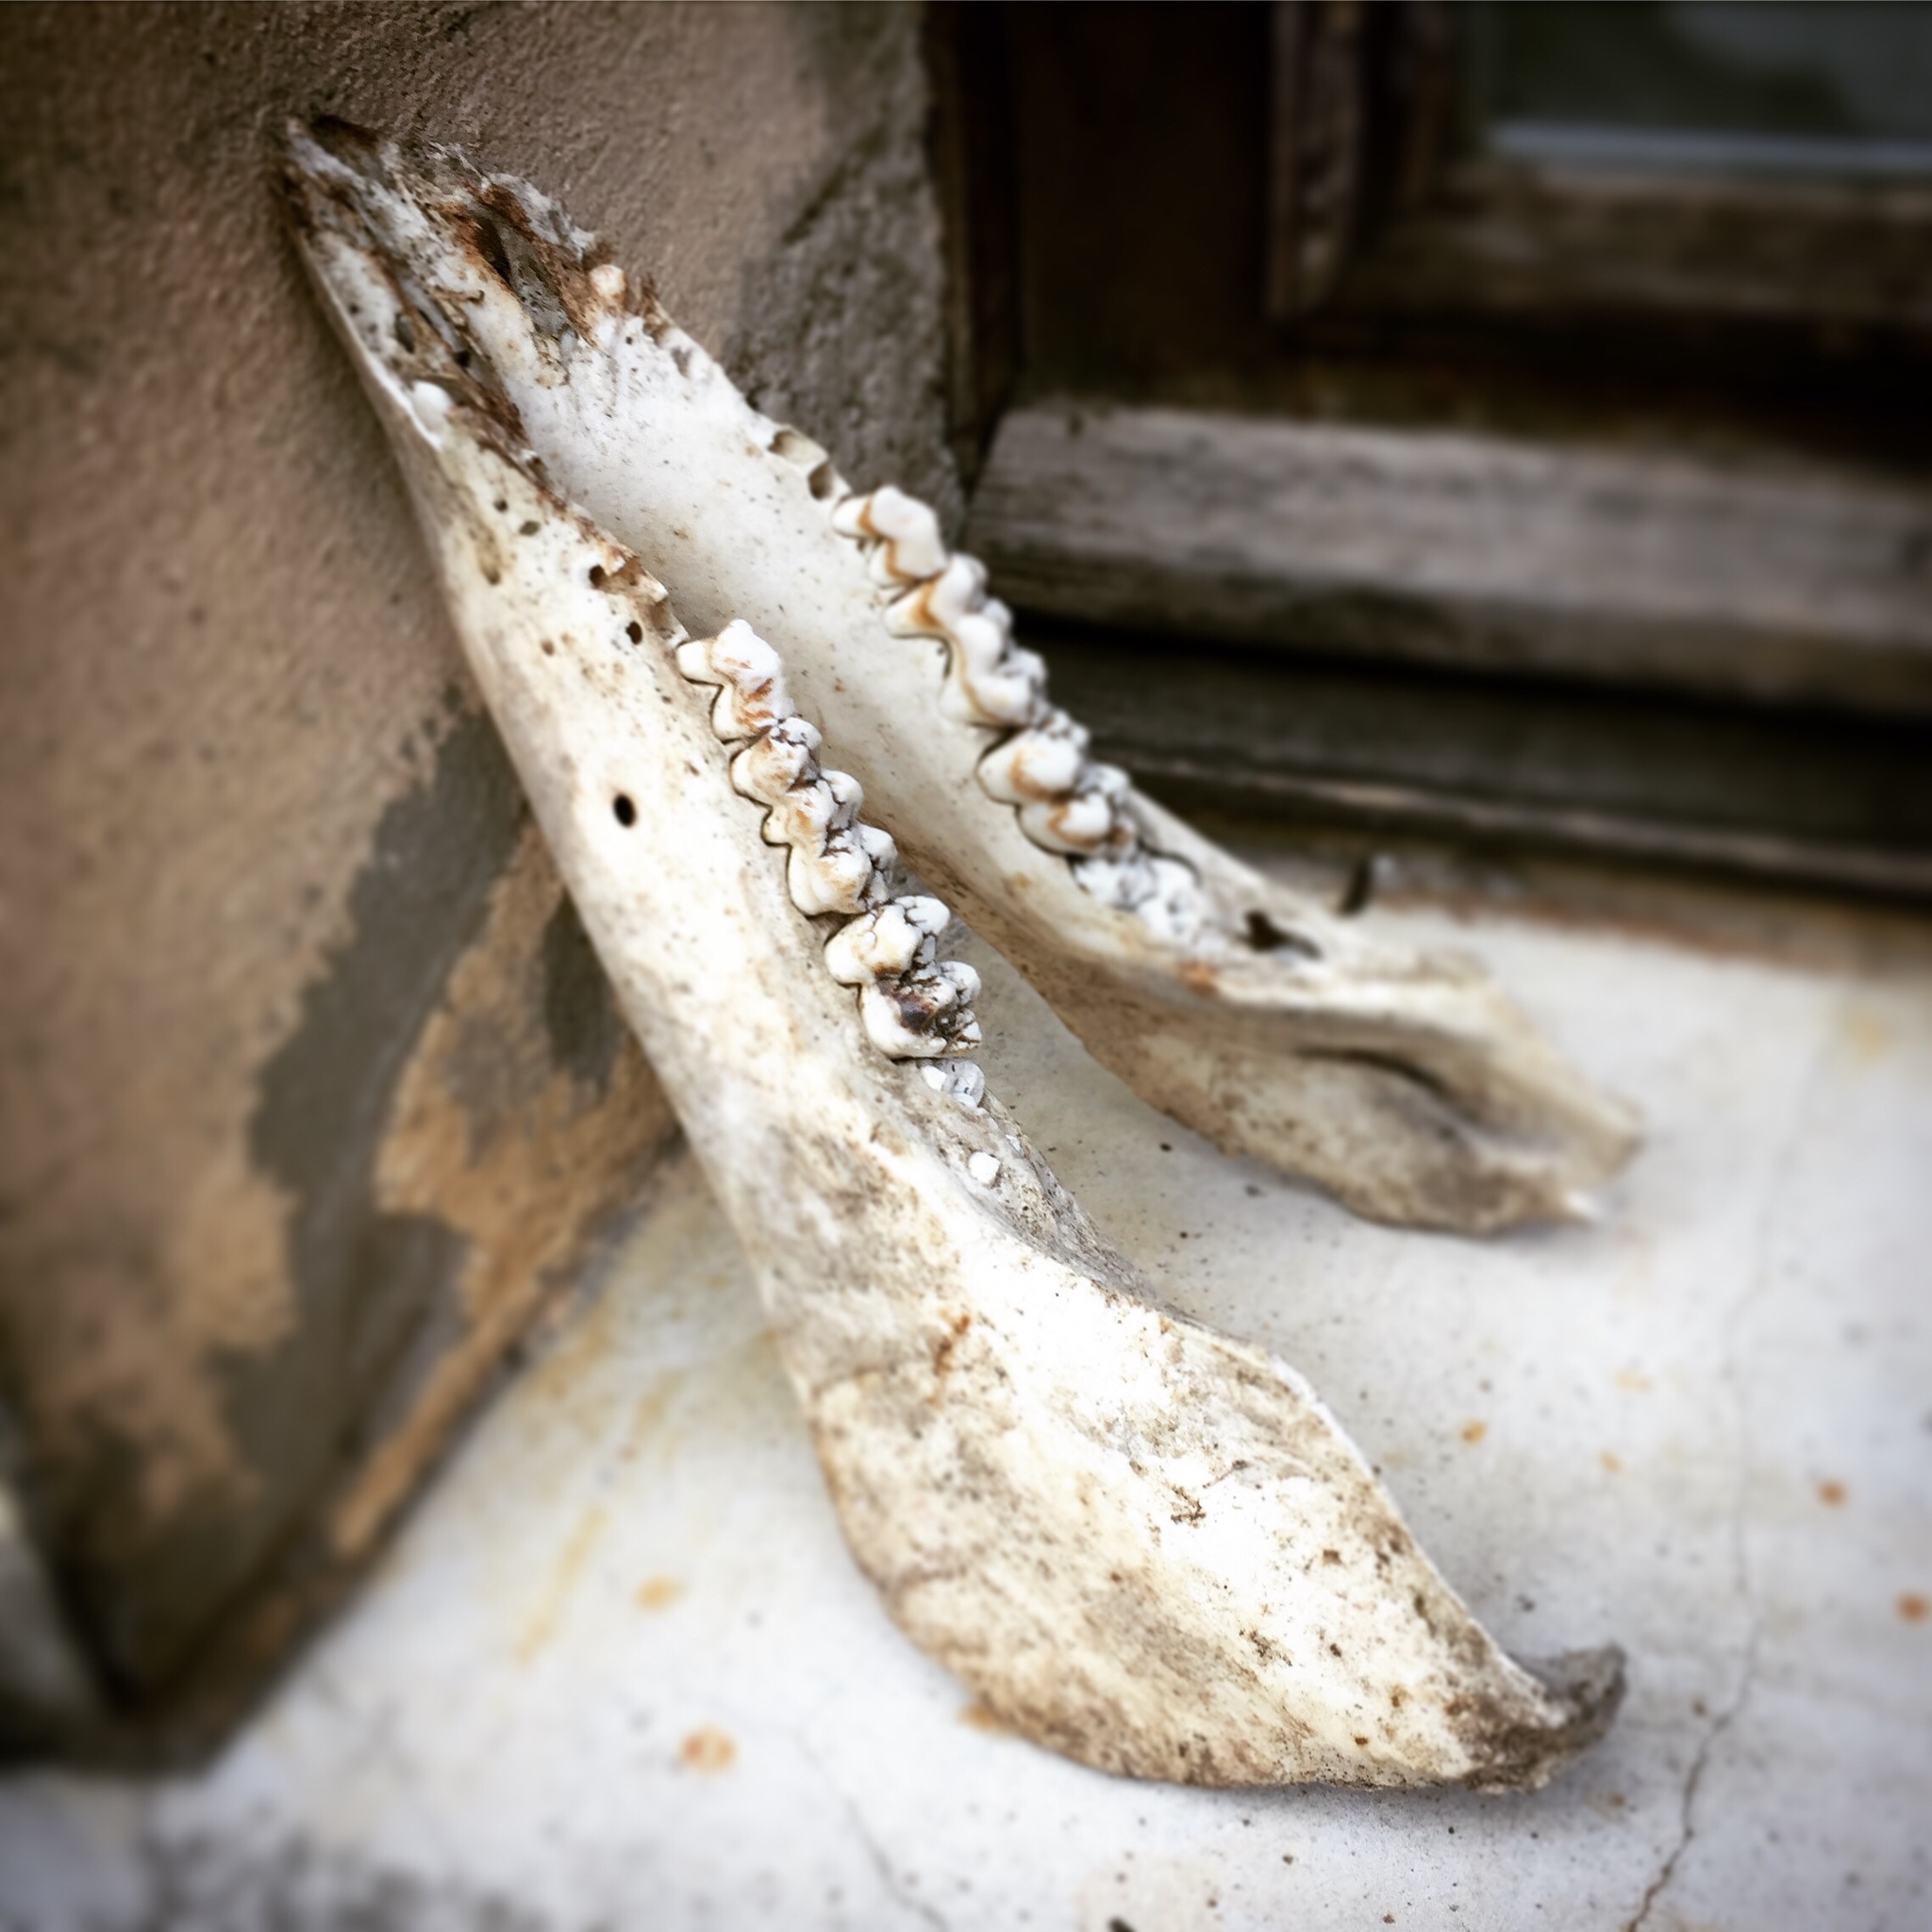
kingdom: Animalia
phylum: Chordata
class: Mammalia
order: Artiodactyla
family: Suidae
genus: Sus
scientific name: Sus scrofa
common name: Wild boar
